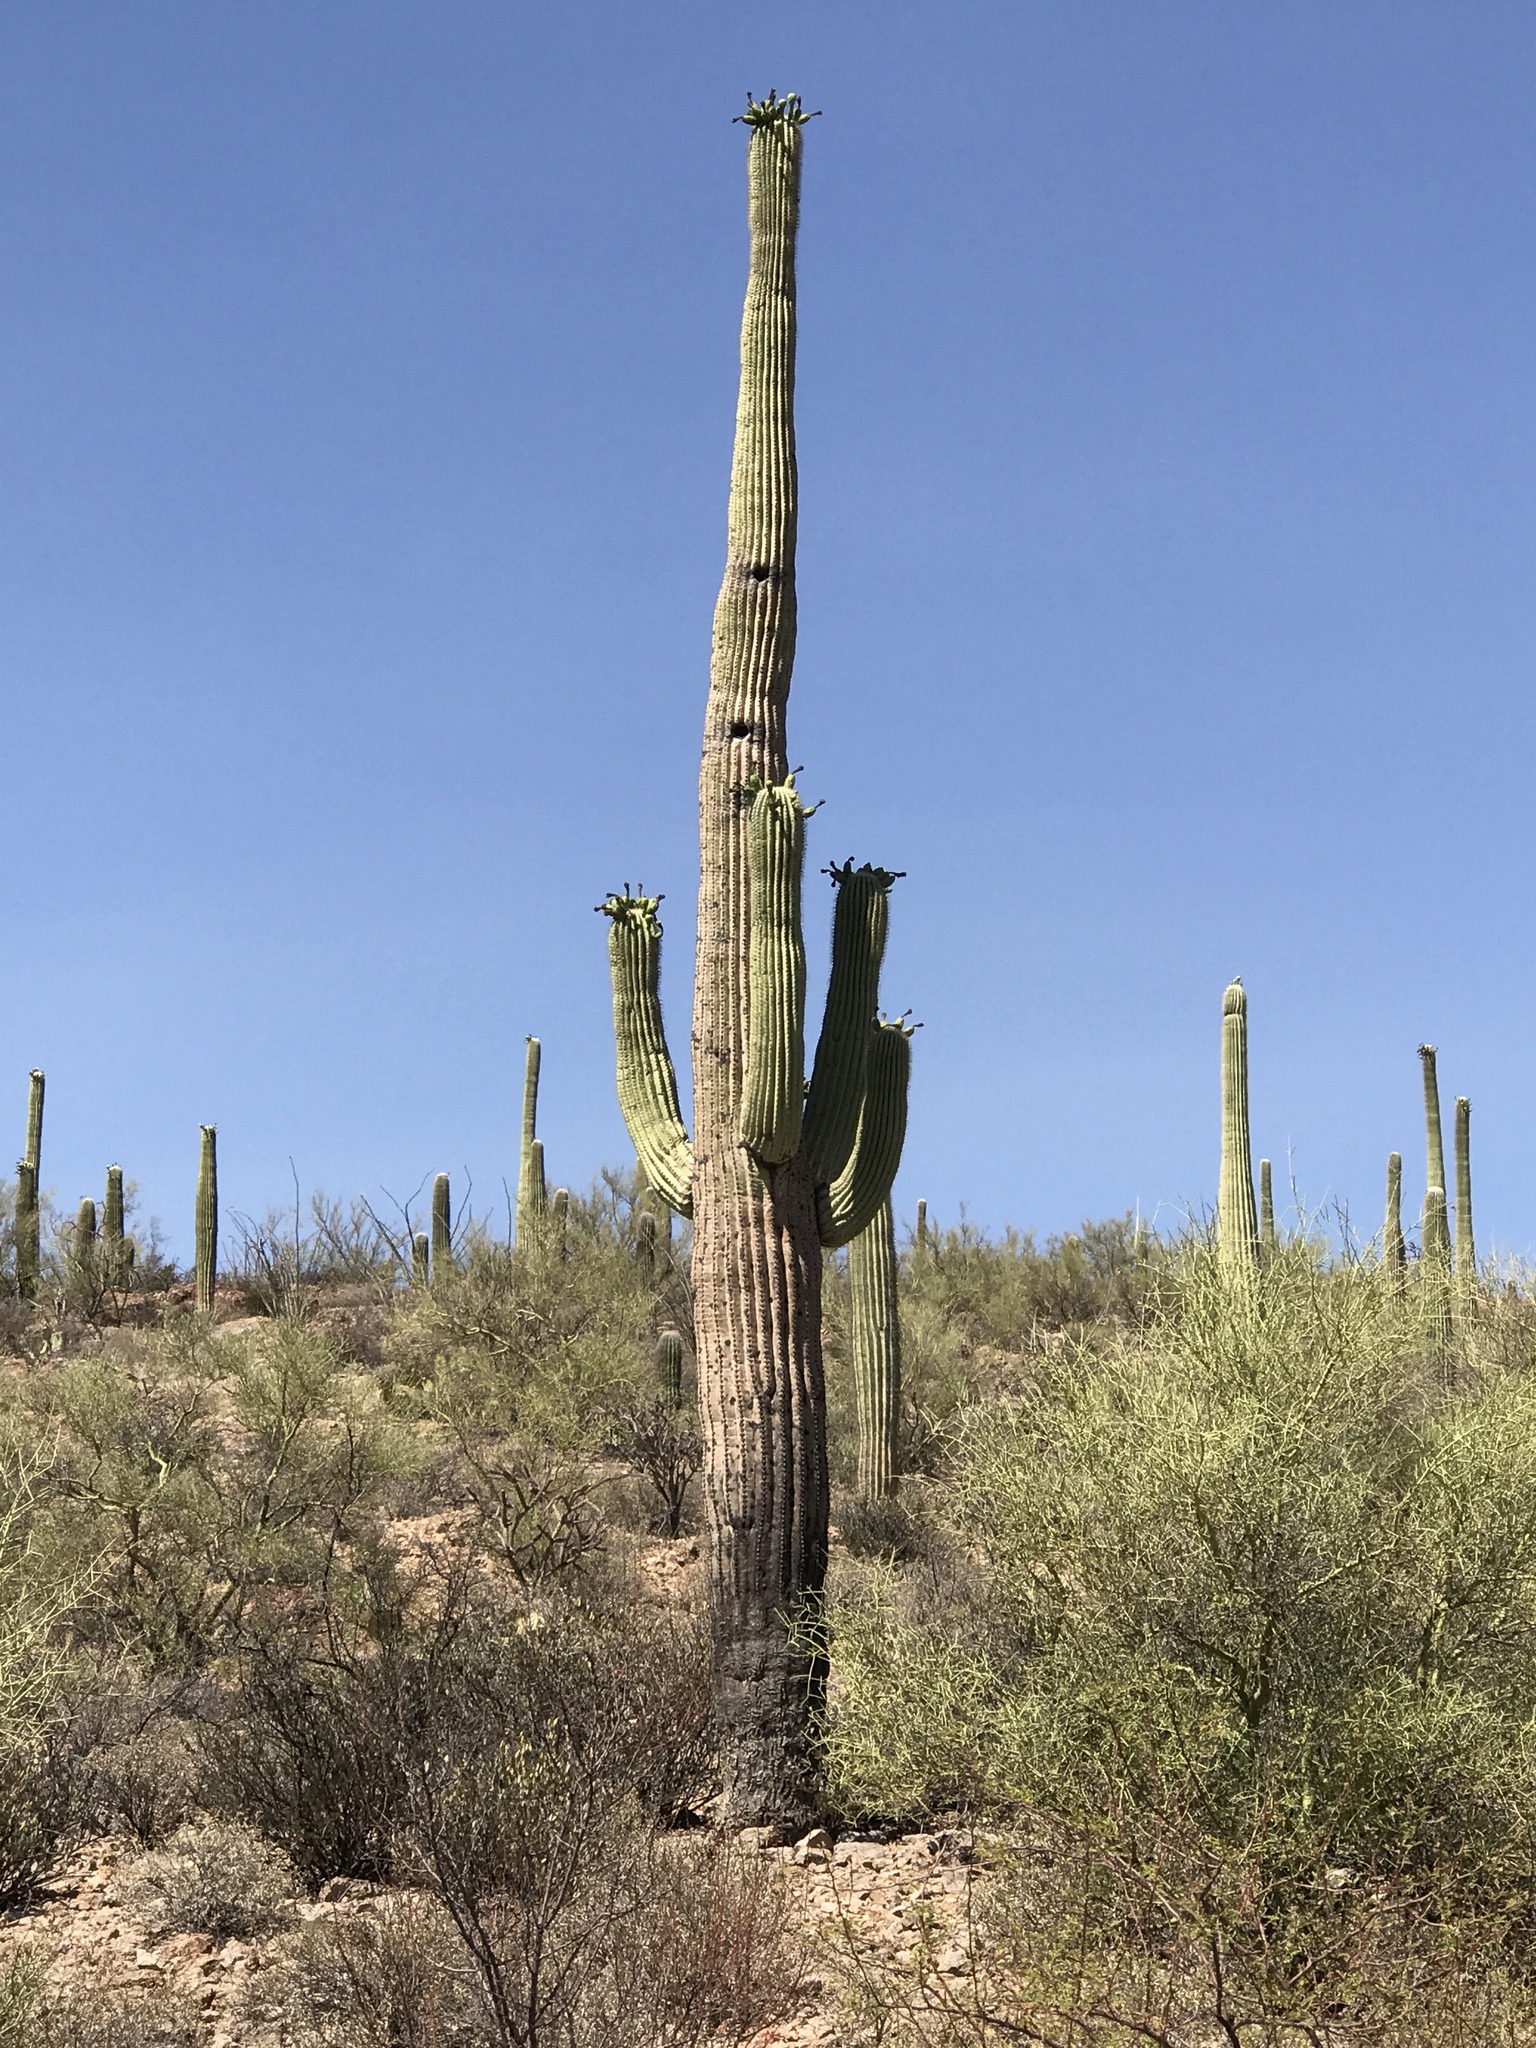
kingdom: Plantae
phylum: Tracheophyta
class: Magnoliopsida
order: Caryophyllales
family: Cactaceae
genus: Carnegiea
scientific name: Carnegiea gigantea
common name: Saguaro
